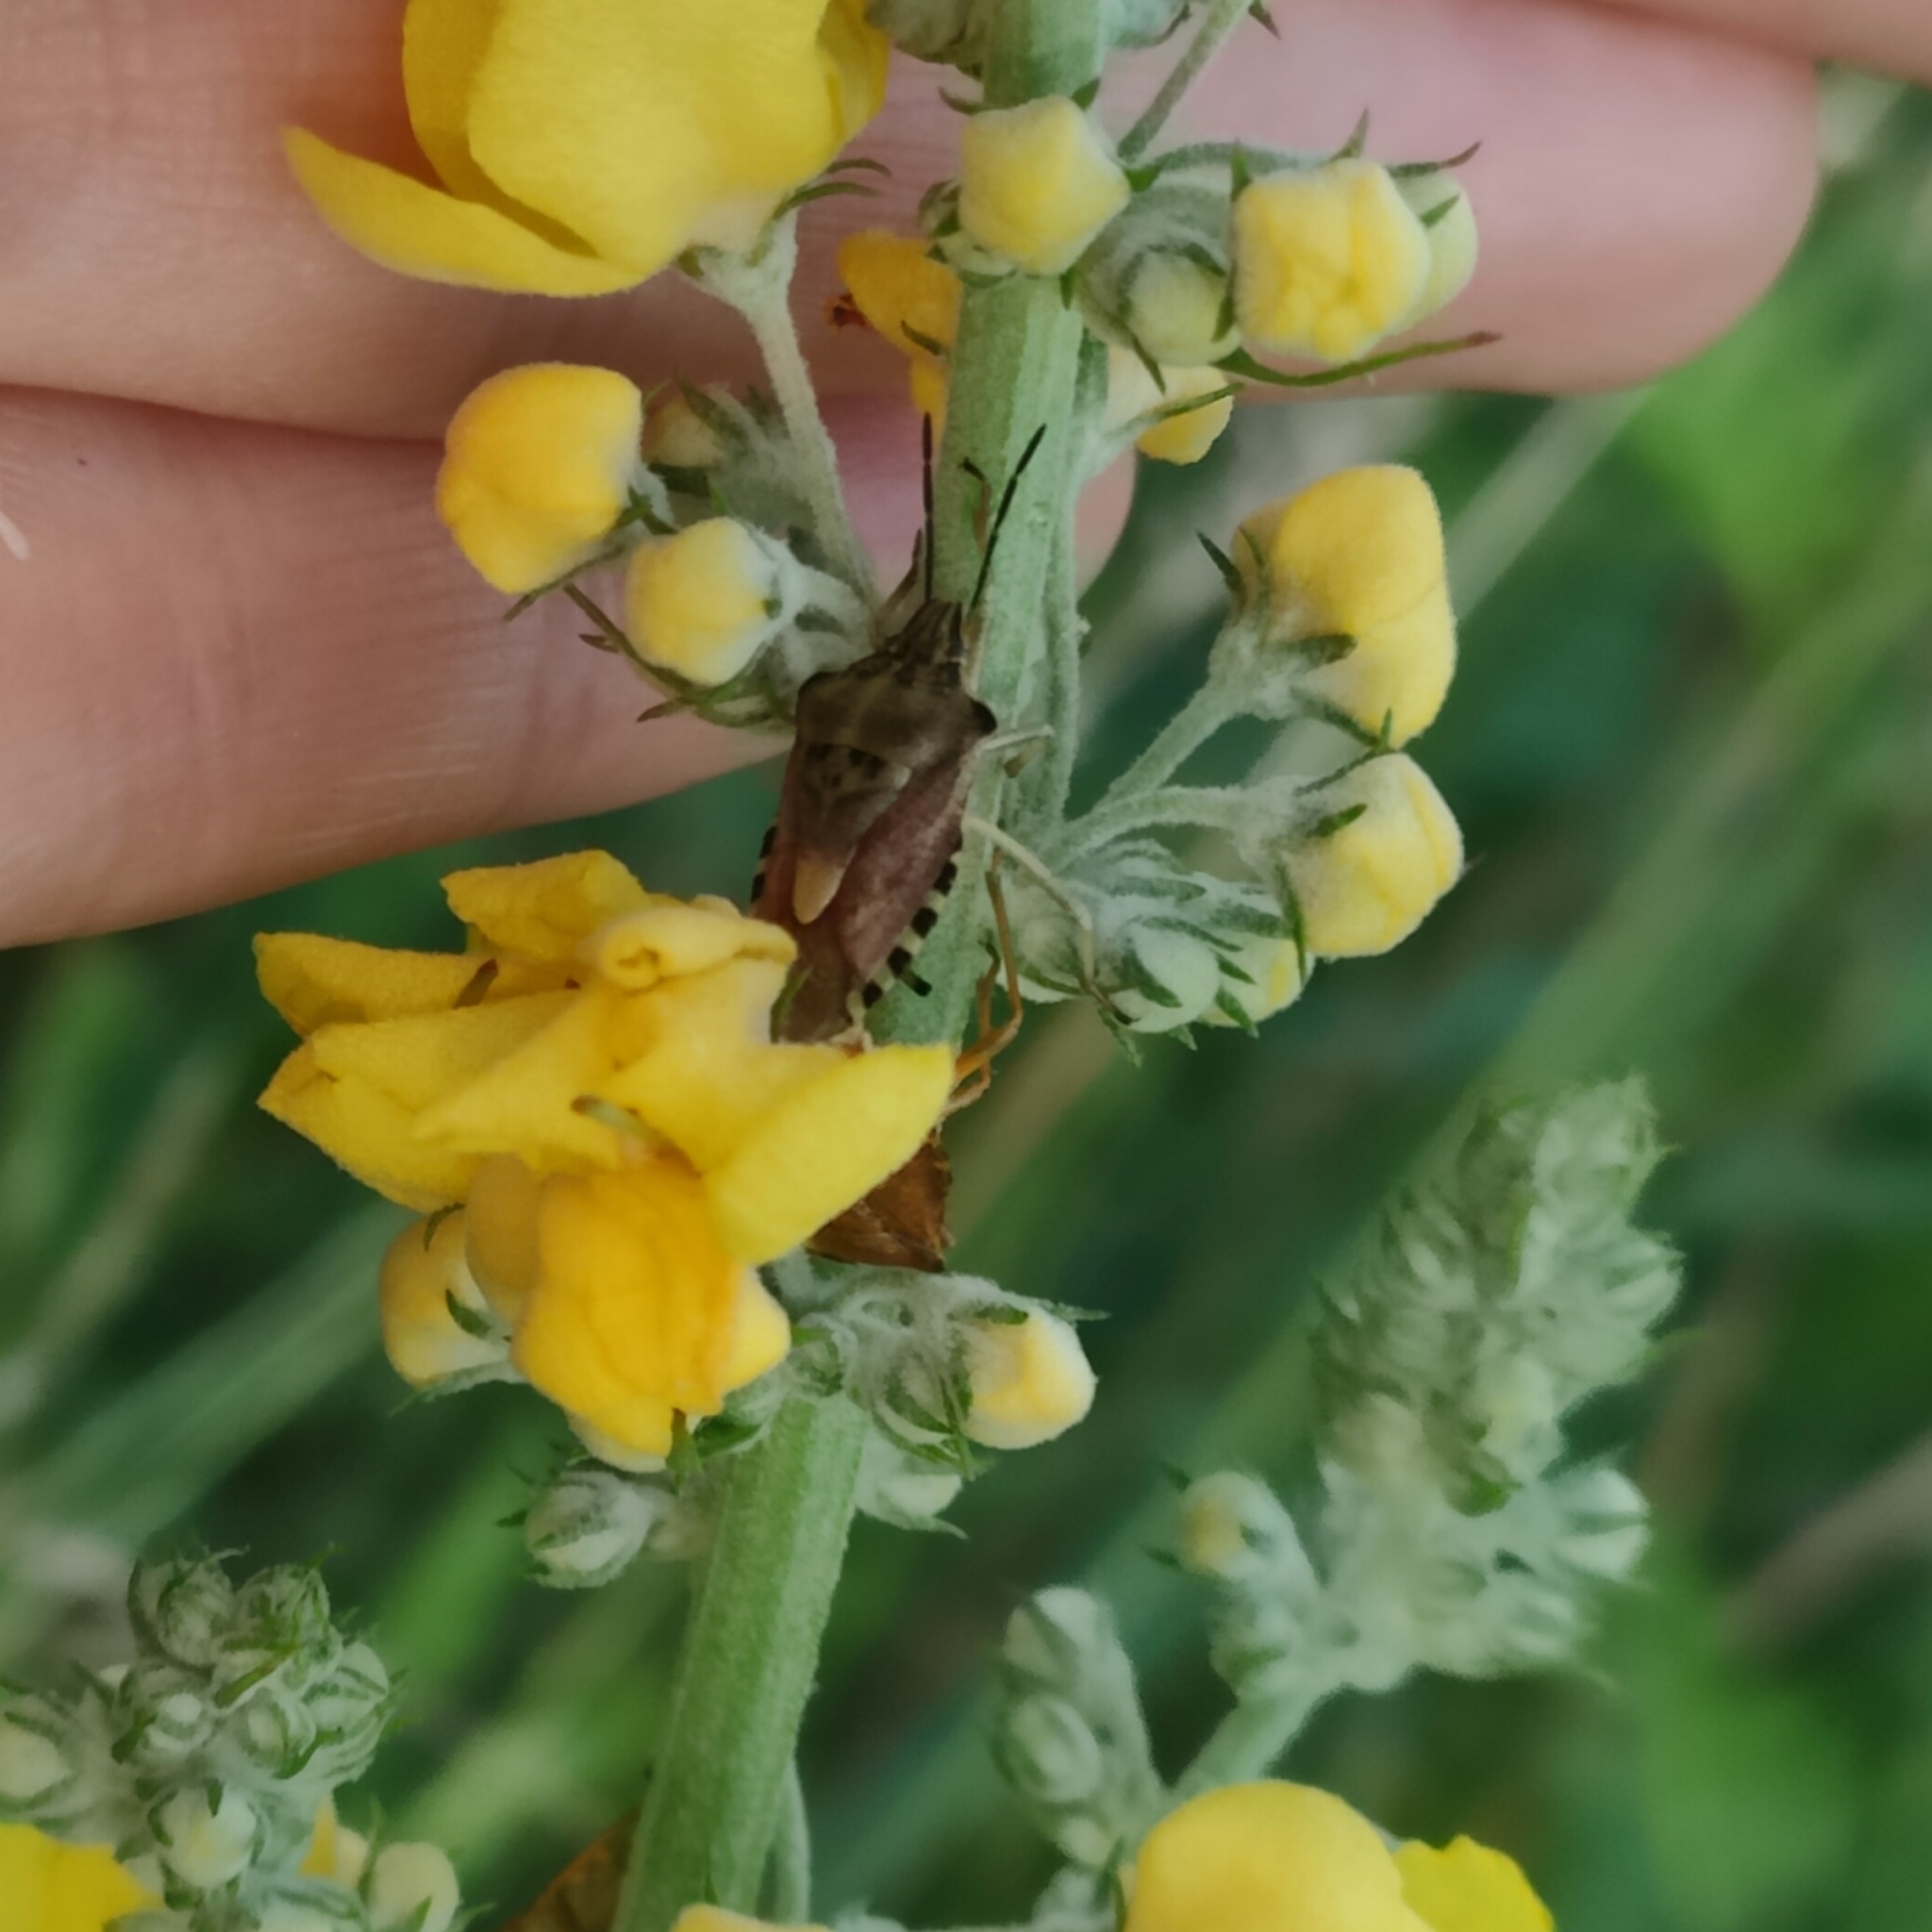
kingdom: Animalia
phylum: Arthropoda
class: Insecta
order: Hemiptera
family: Pentatomidae
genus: Carpocoris
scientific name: Carpocoris purpureipennis
